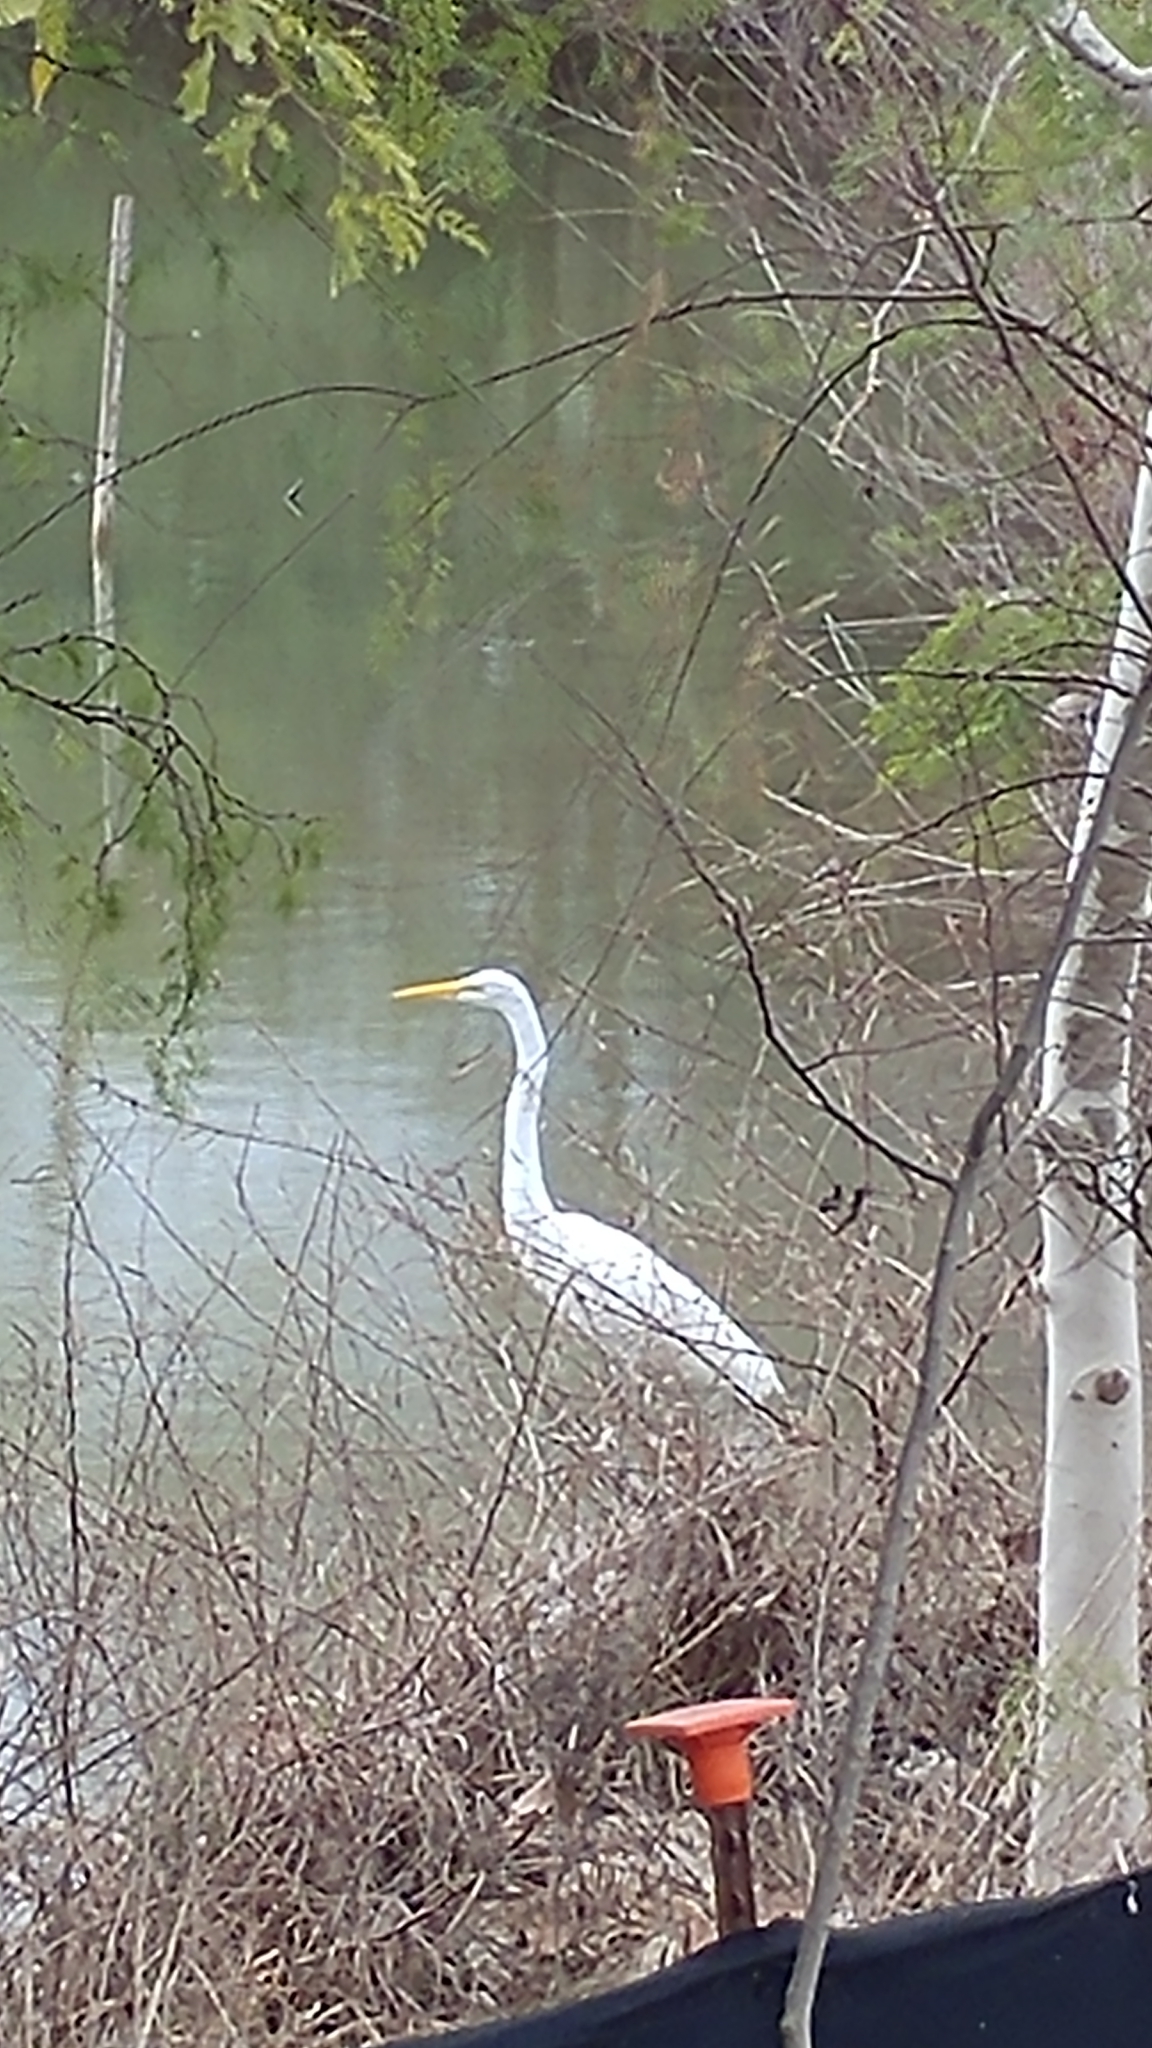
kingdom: Animalia
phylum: Chordata
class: Aves
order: Pelecaniformes
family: Ardeidae
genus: Ardea
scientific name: Ardea alba
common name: Great egret
